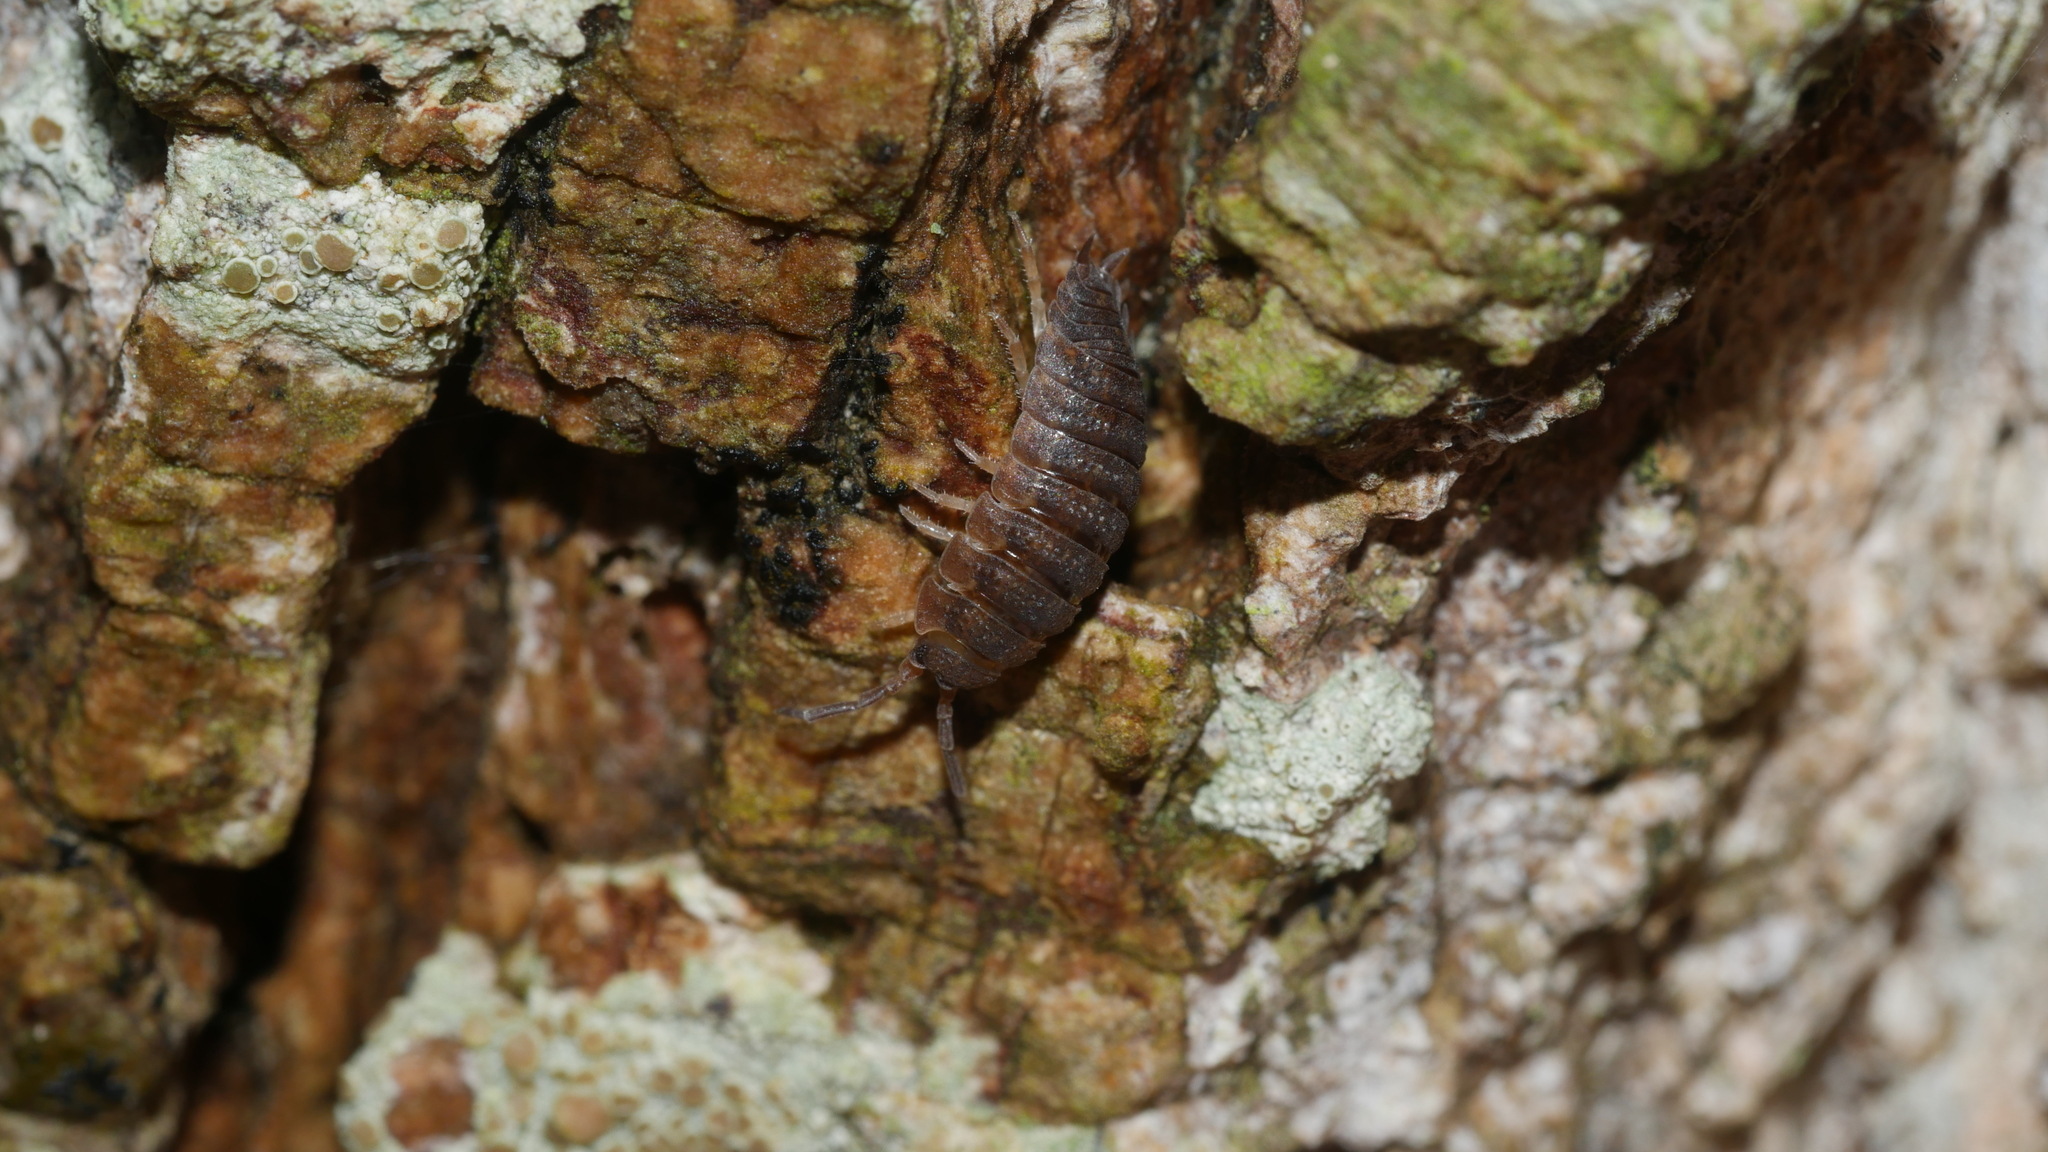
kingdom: Animalia
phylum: Arthropoda
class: Malacostraca
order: Isopoda
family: Porcellionidae
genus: Porcellio
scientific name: Porcellio scaber
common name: Common rough woodlouse
